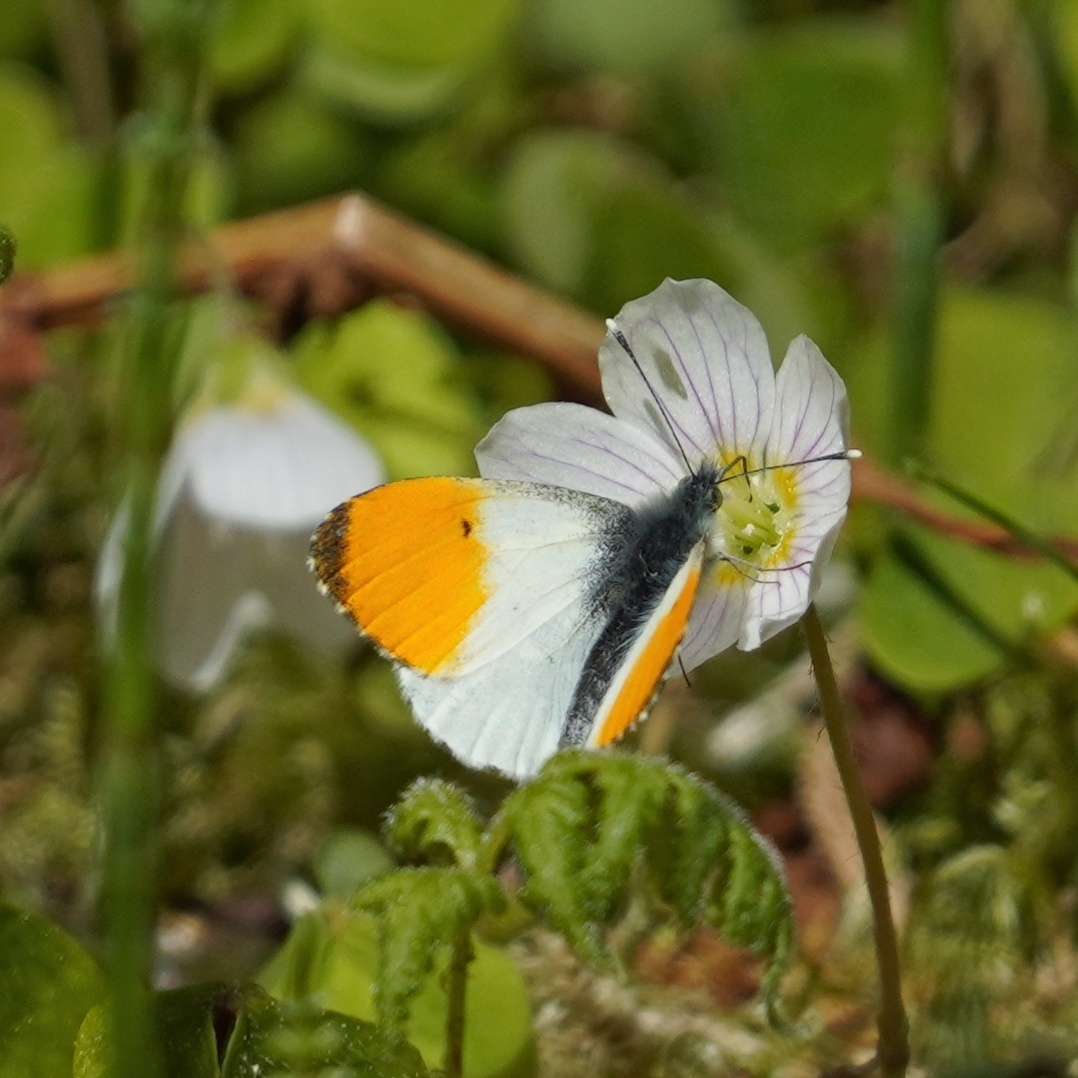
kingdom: Animalia
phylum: Arthropoda
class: Insecta
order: Lepidoptera
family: Pieridae
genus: Anthocharis
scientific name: Anthocharis cardamines
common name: Orange-tip
